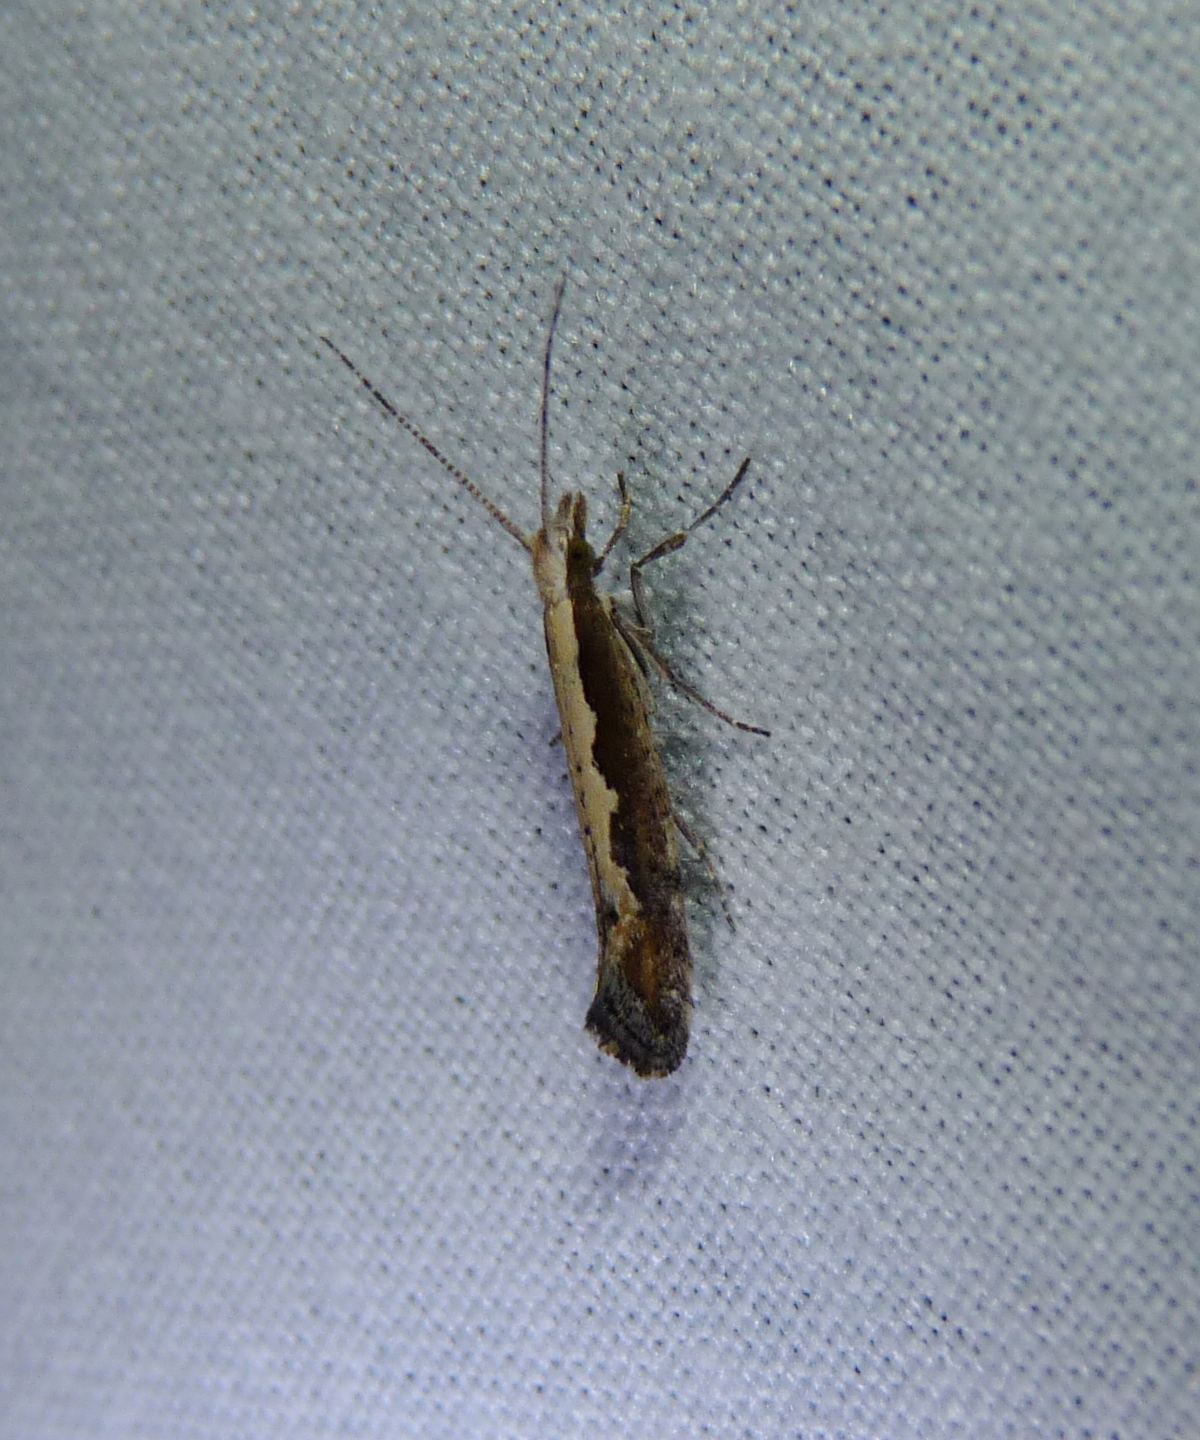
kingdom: Animalia
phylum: Arthropoda
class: Insecta
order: Lepidoptera
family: Plutellidae
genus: Plutella
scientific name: Plutella xylostella
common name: Diamond-back moth
